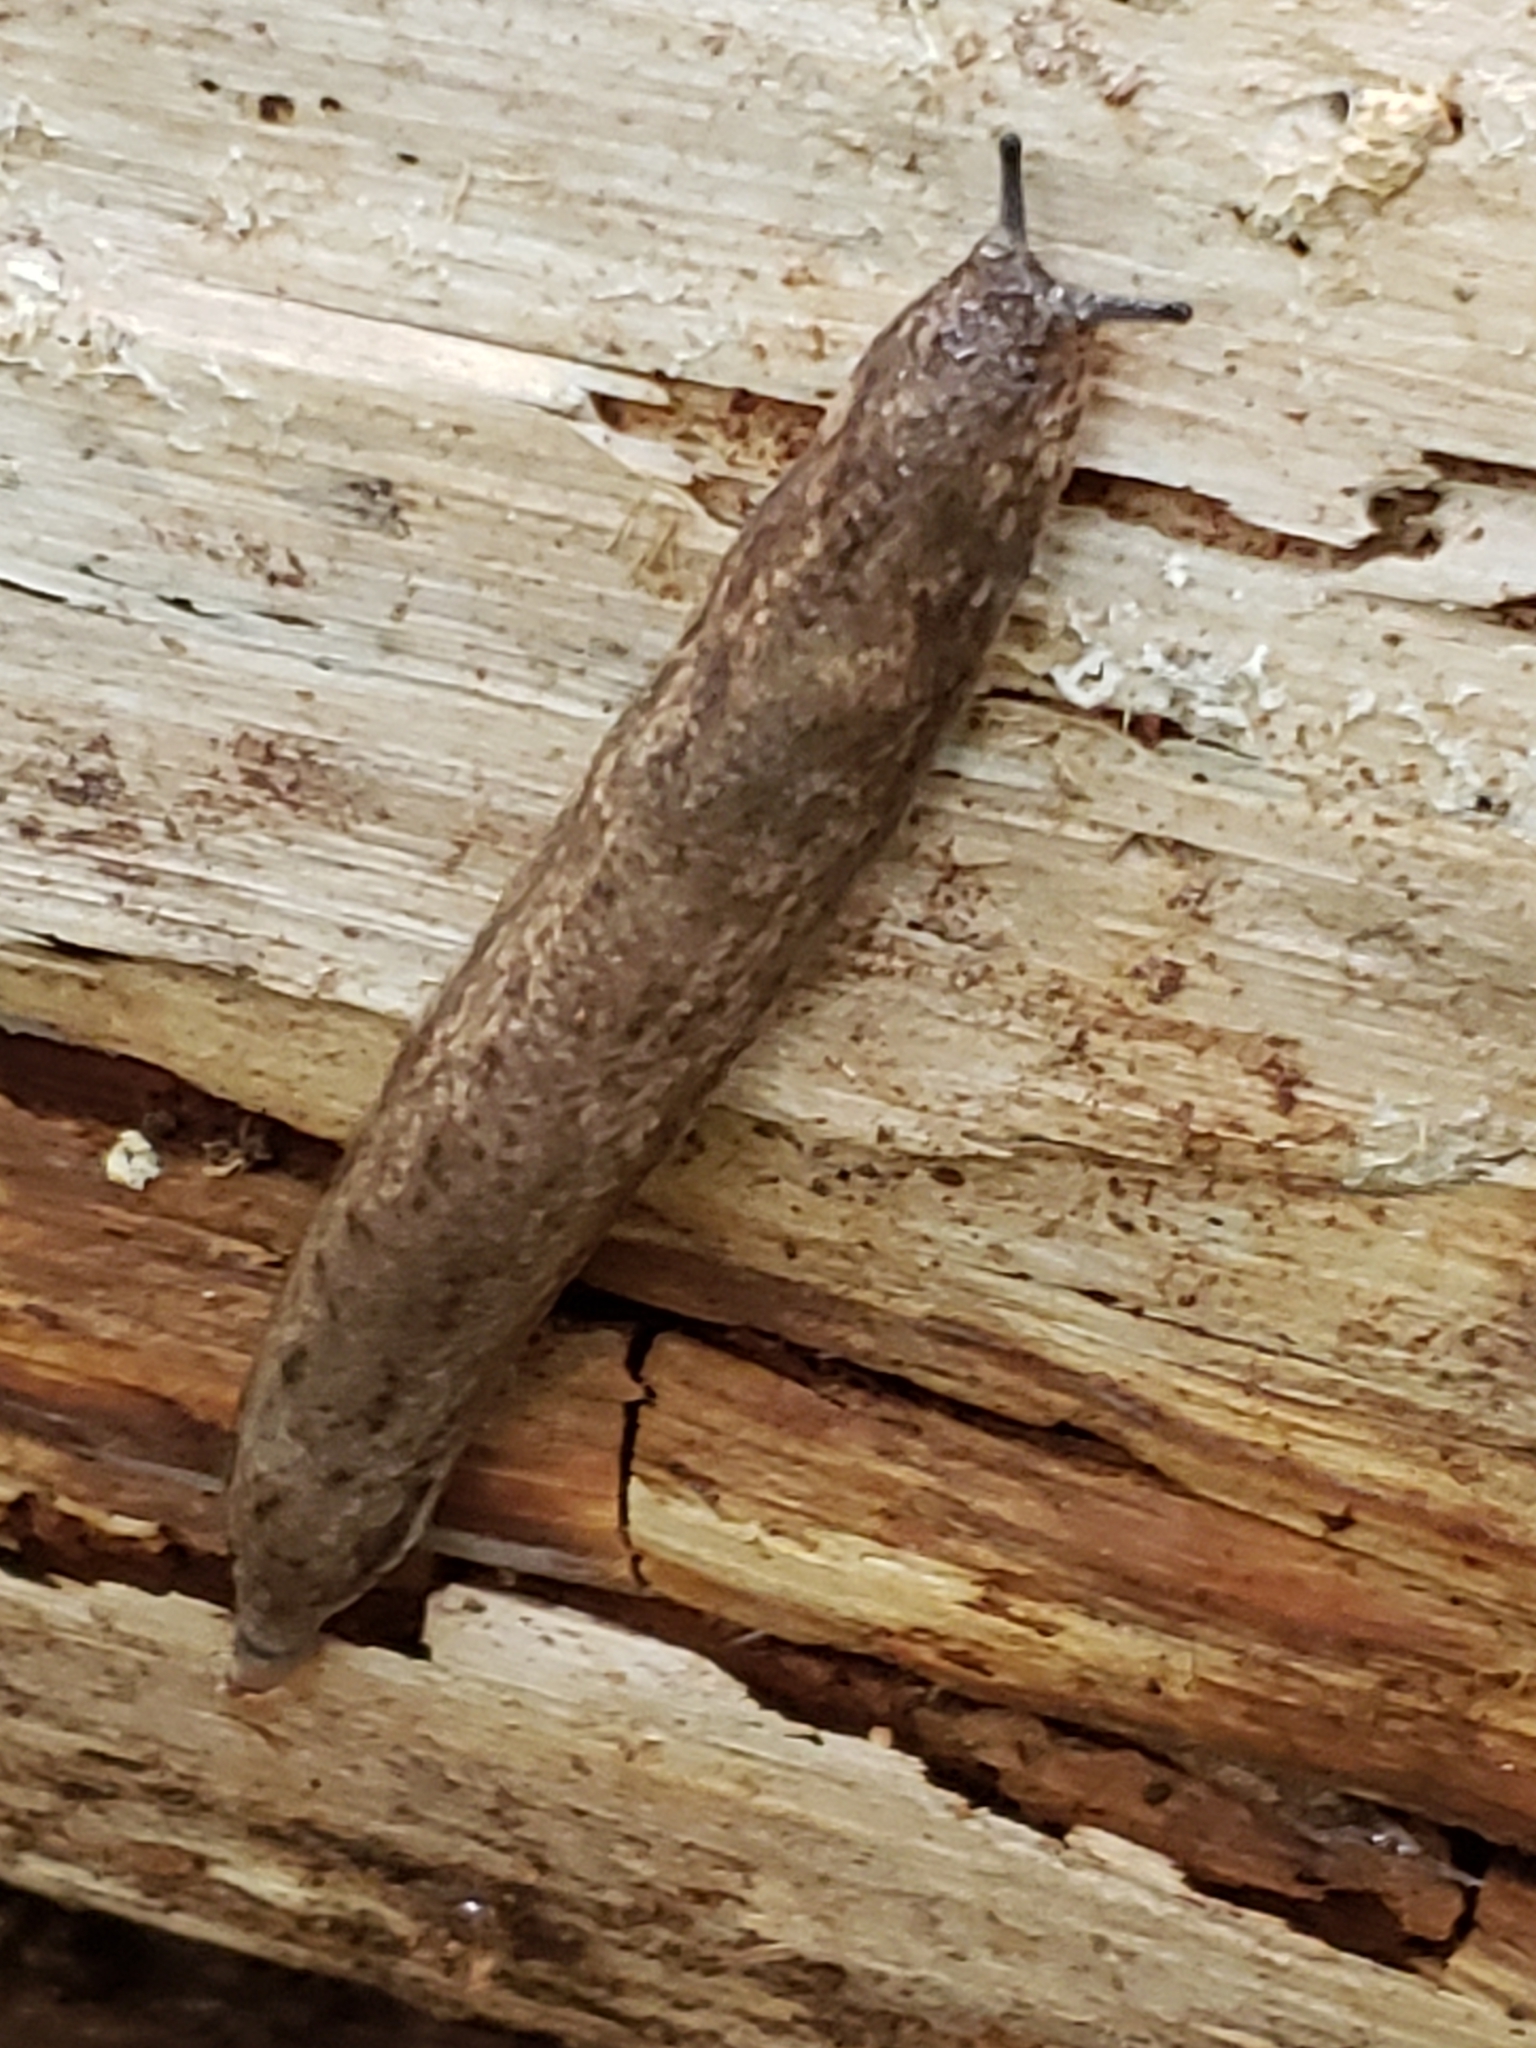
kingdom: Animalia
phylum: Mollusca
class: Gastropoda
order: Stylommatophora
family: Philomycidae
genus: Megapallifera
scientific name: Megapallifera mutabilis
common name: Changeable mantleslug
